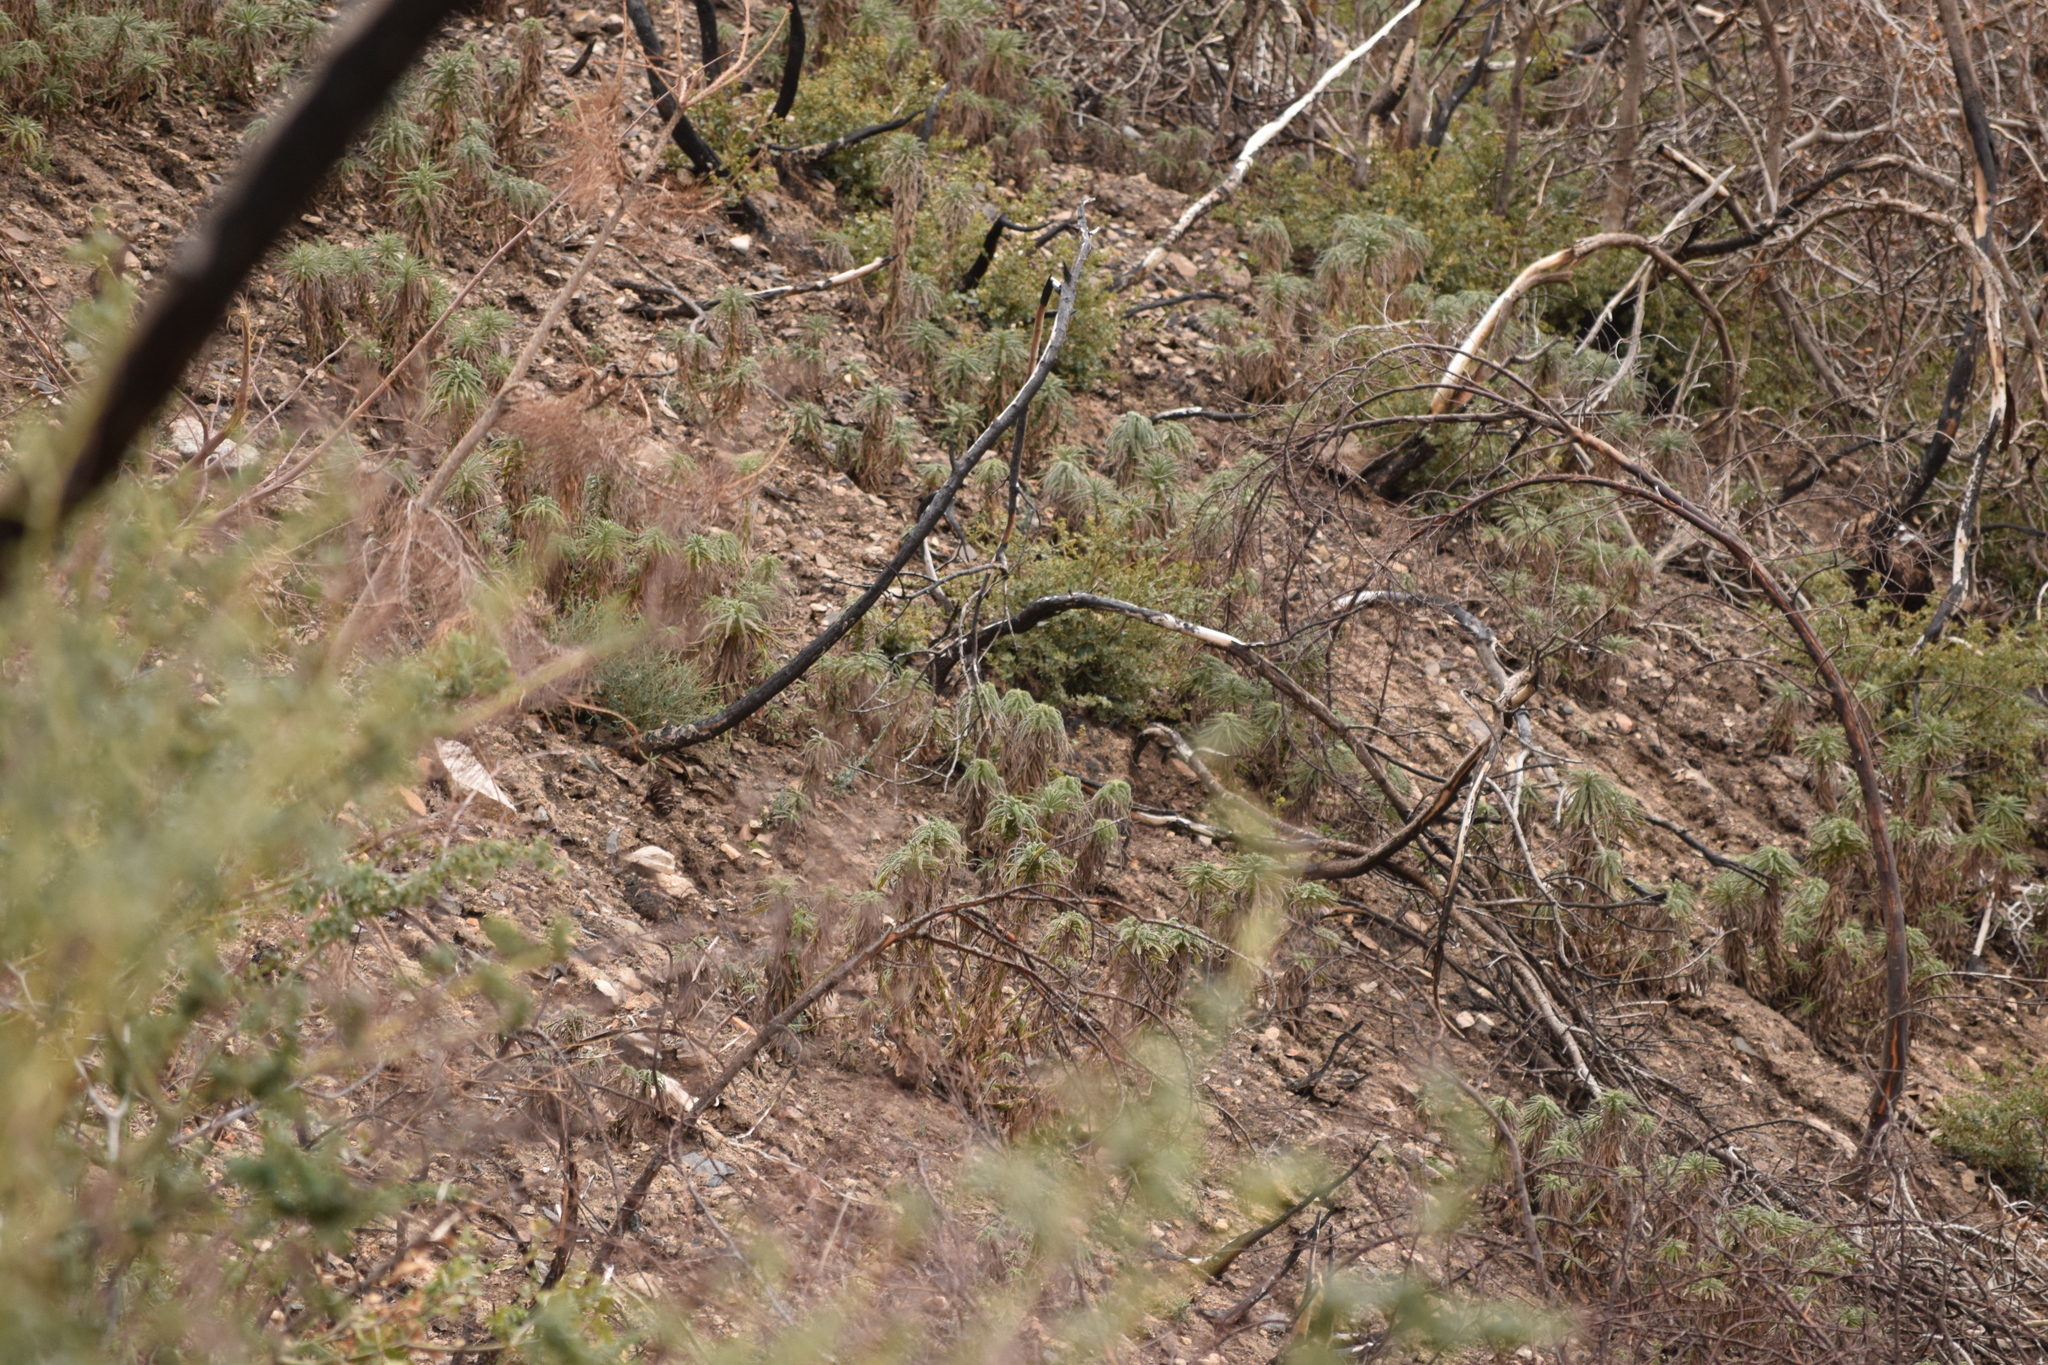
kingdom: Plantae
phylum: Tracheophyta
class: Magnoliopsida
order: Boraginales
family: Namaceae
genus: Turricula
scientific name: Turricula parryi
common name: Poodle-dog-bush
